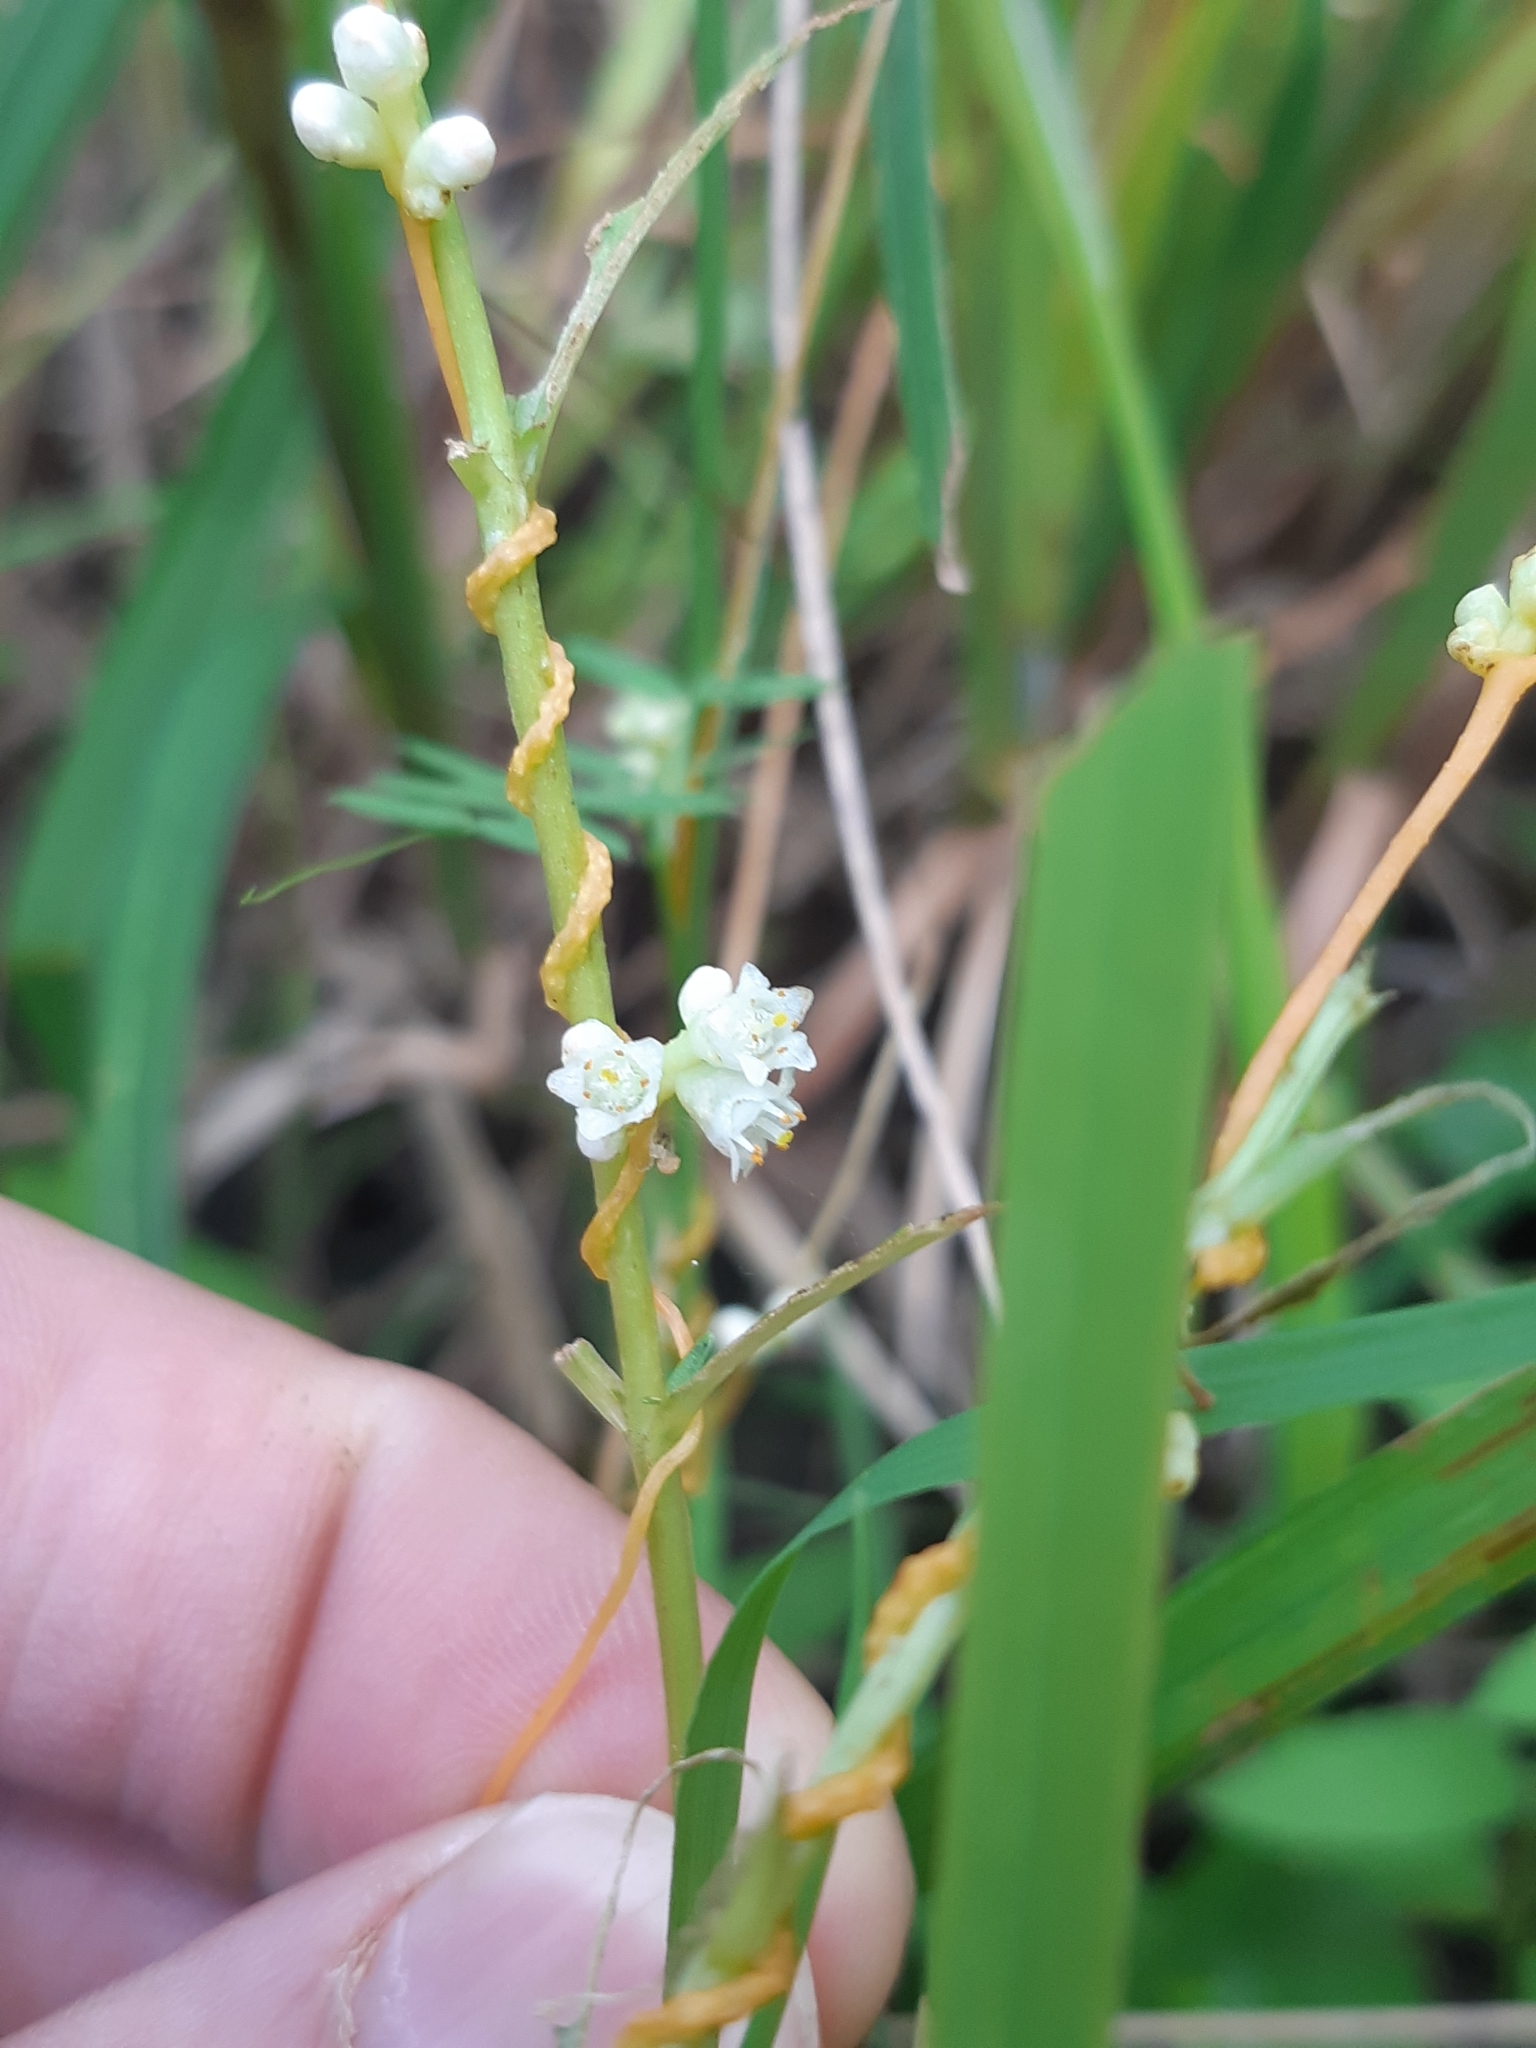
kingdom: Plantae
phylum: Tracheophyta
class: Magnoliopsida
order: Solanales
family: Convolvulaceae
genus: Cuscuta
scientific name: Cuscuta gronovii
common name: Common dodder
